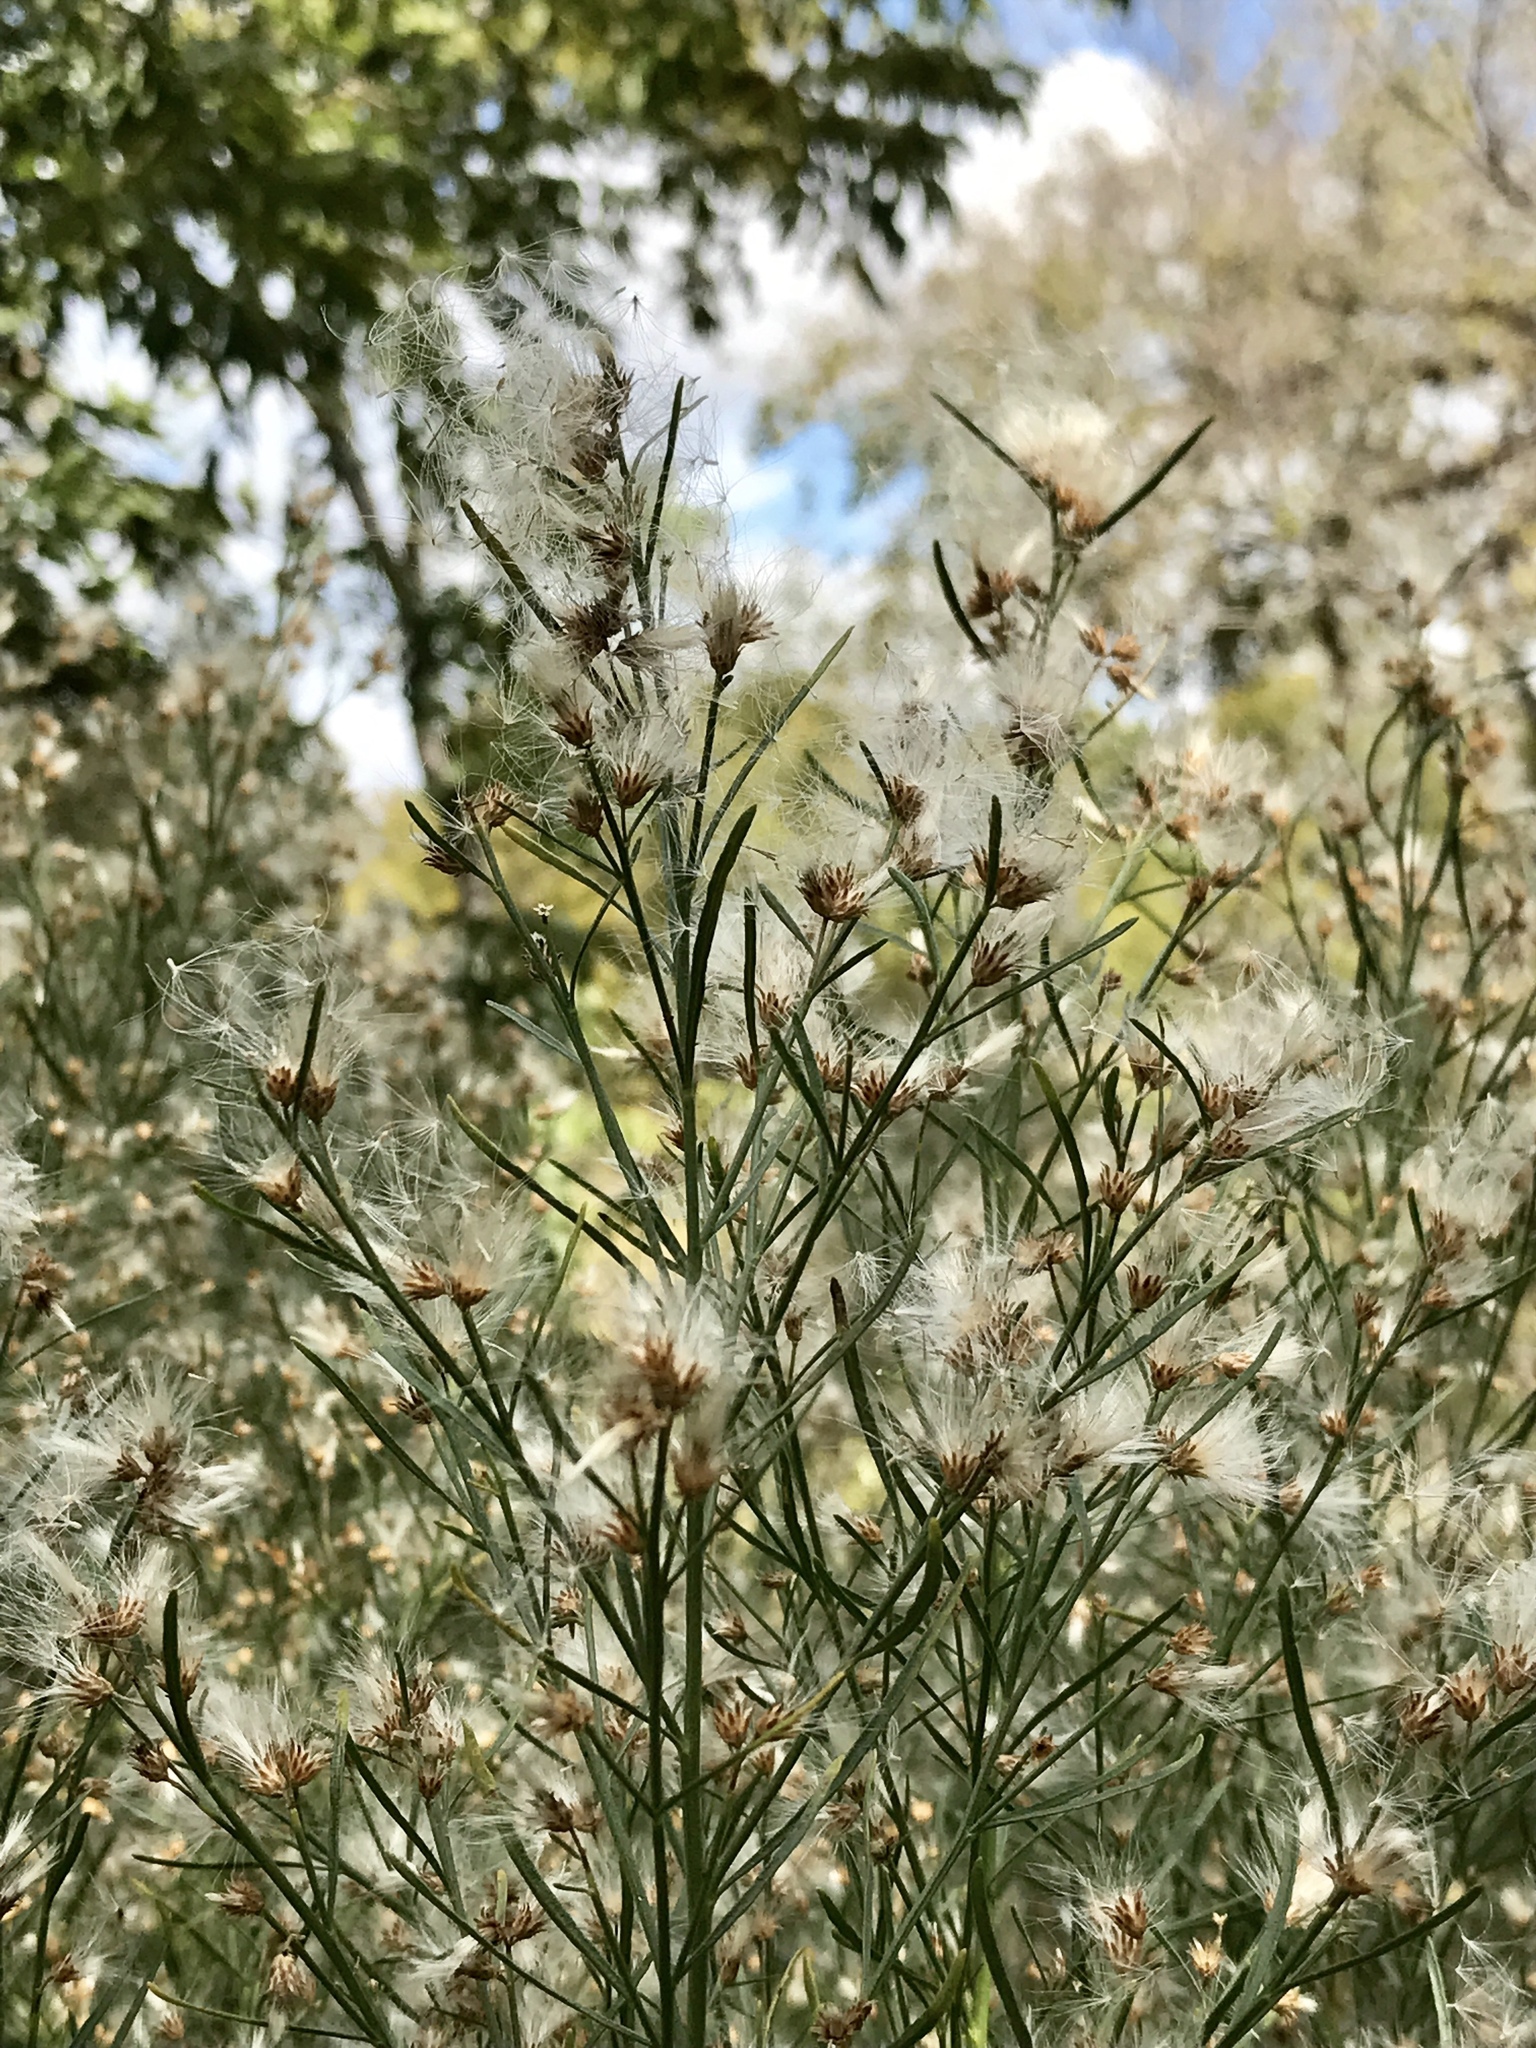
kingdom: Plantae
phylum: Tracheophyta
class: Magnoliopsida
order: Asterales
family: Asteraceae
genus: Baccharis
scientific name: Baccharis neglecta
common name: Roosevelt-weed
